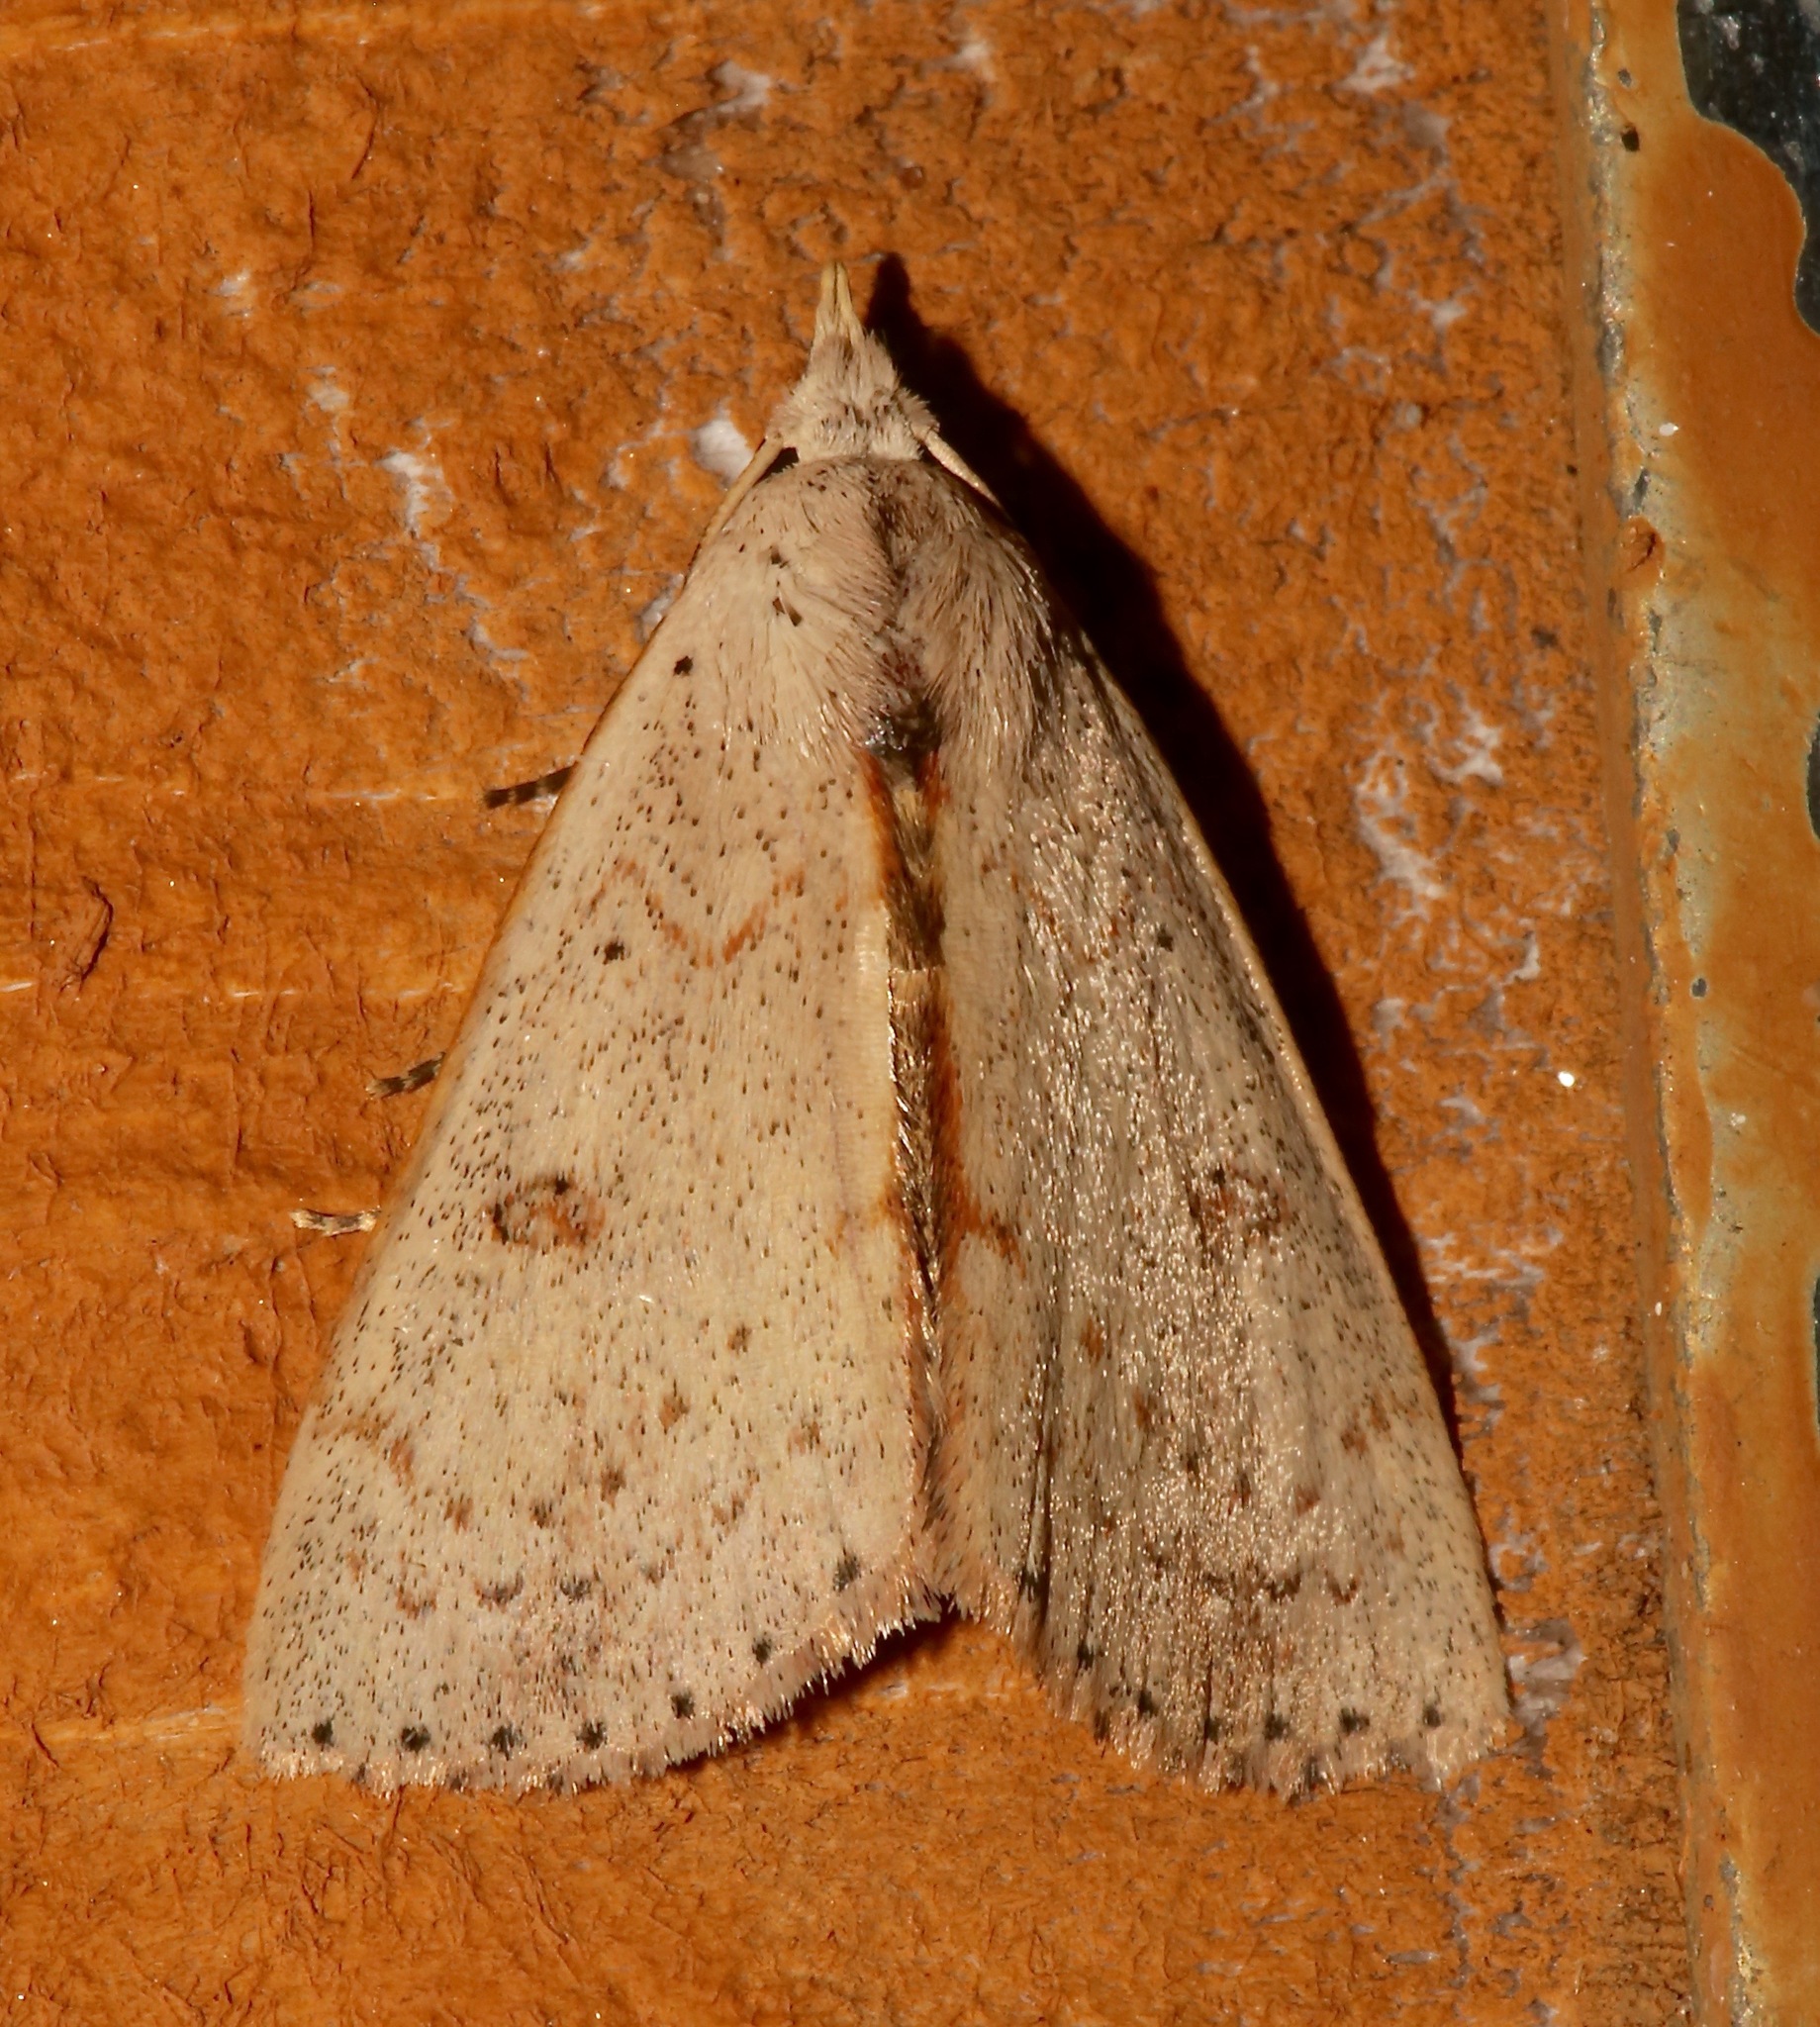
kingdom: Animalia
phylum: Arthropoda
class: Insecta
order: Lepidoptera
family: Erebidae
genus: Scolecocampa
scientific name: Scolecocampa liburna
